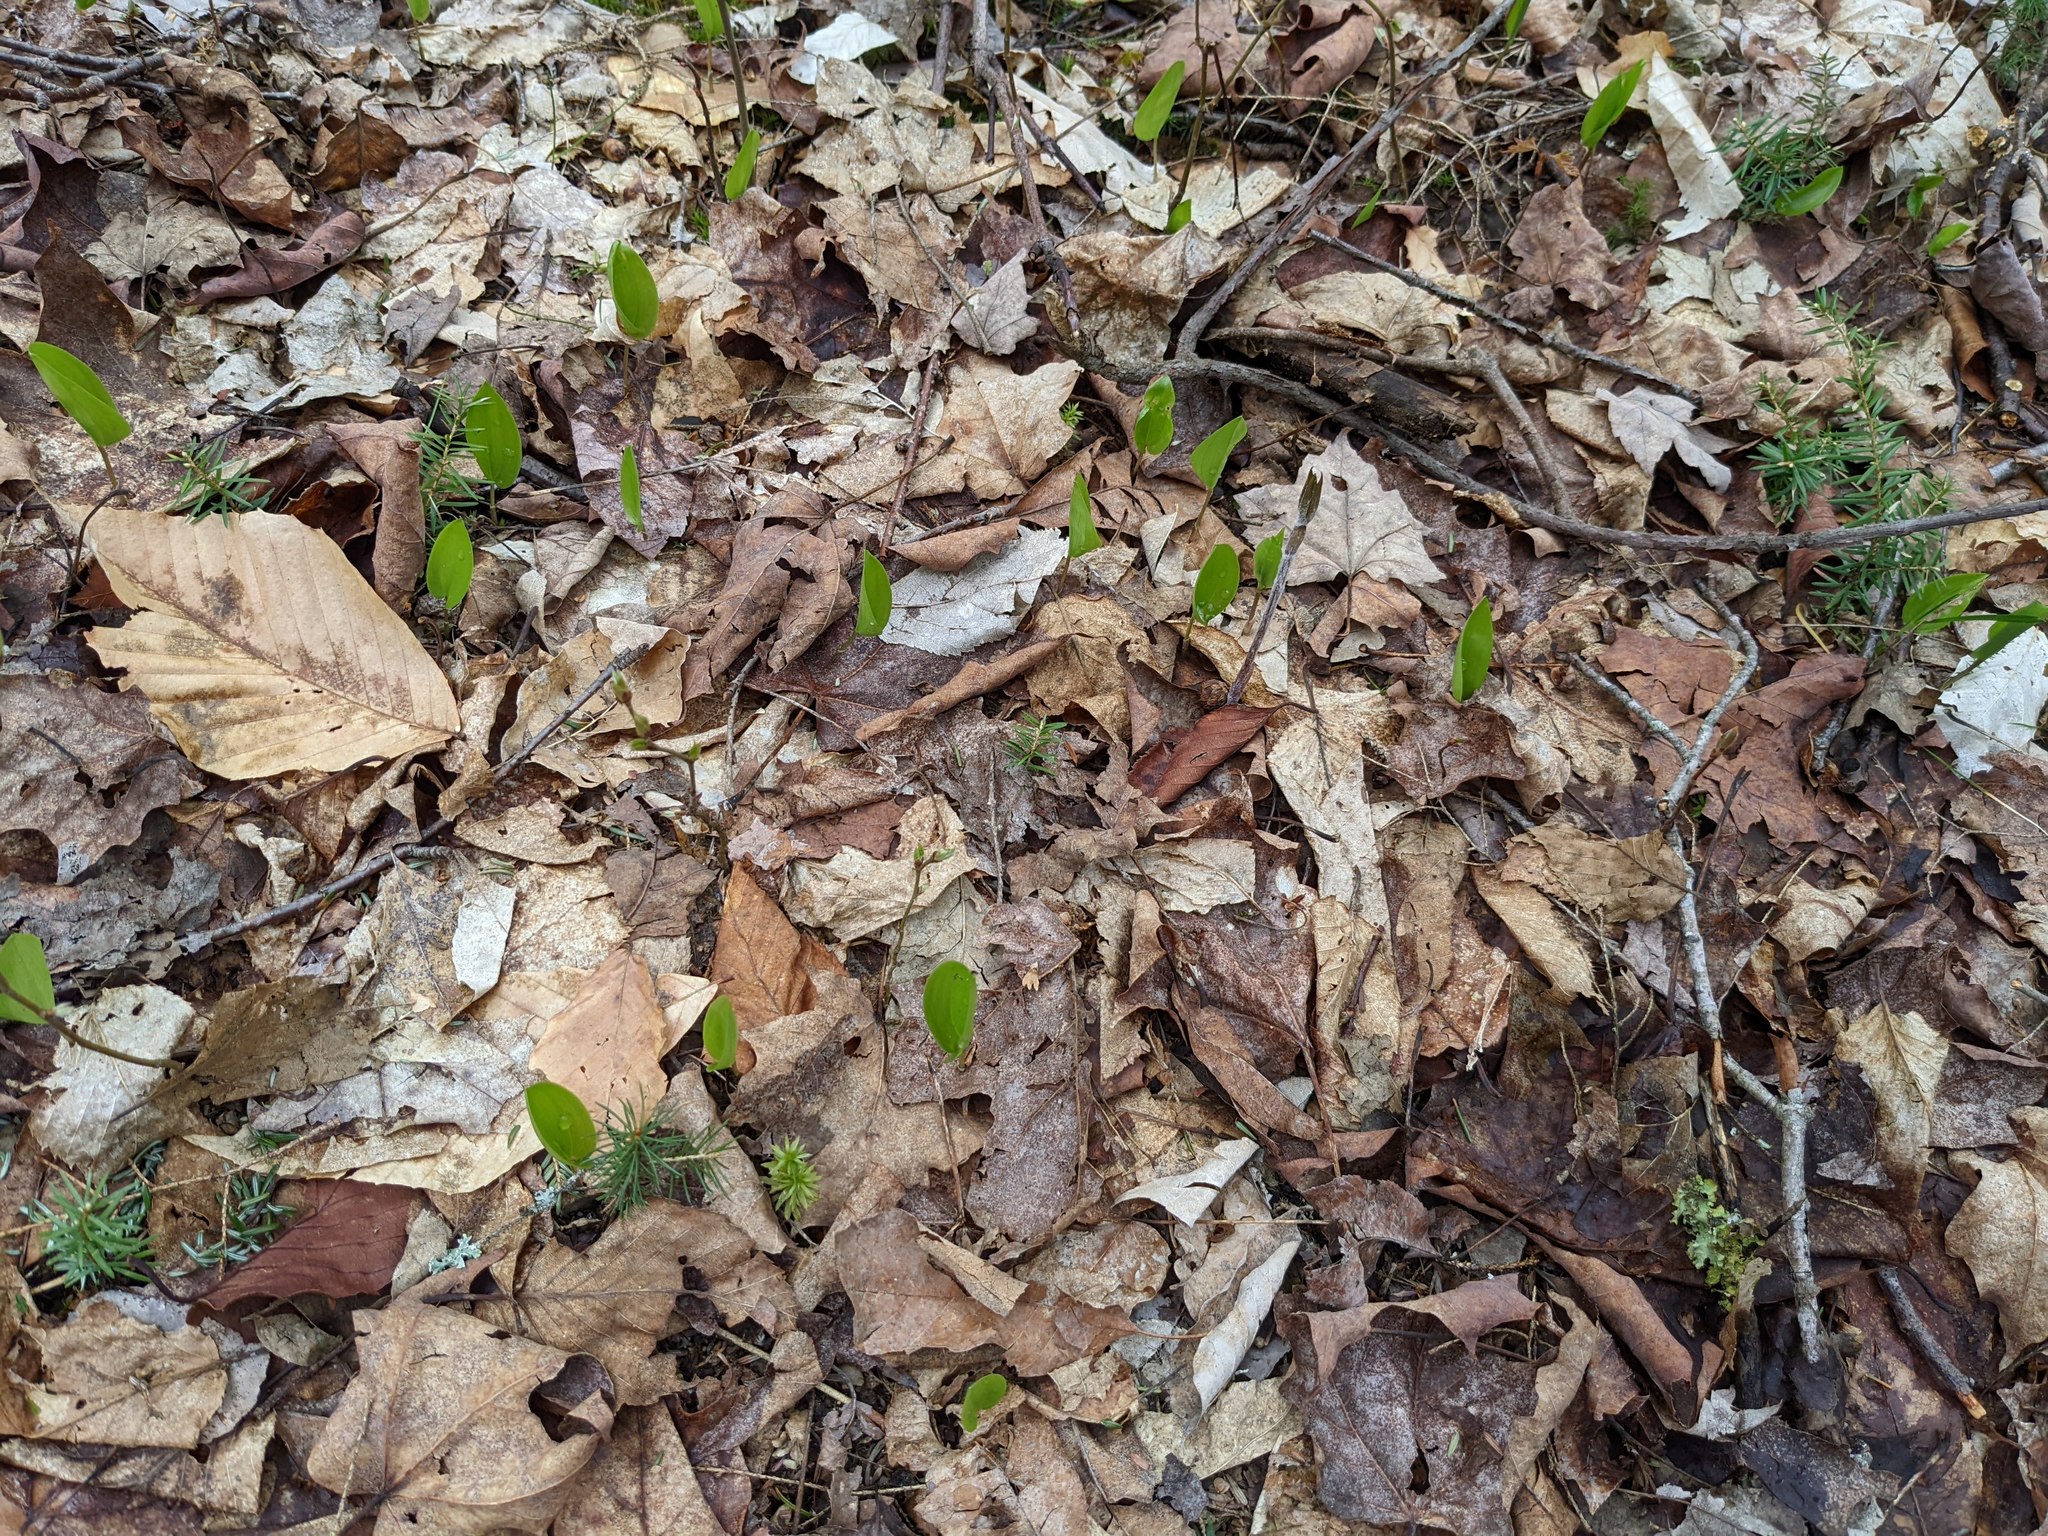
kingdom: Plantae
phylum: Tracheophyta
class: Liliopsida
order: Asparagales
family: Asparagaceae
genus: Maianthemum
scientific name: Maianthemum canadense
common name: False lily-of-the-valley
